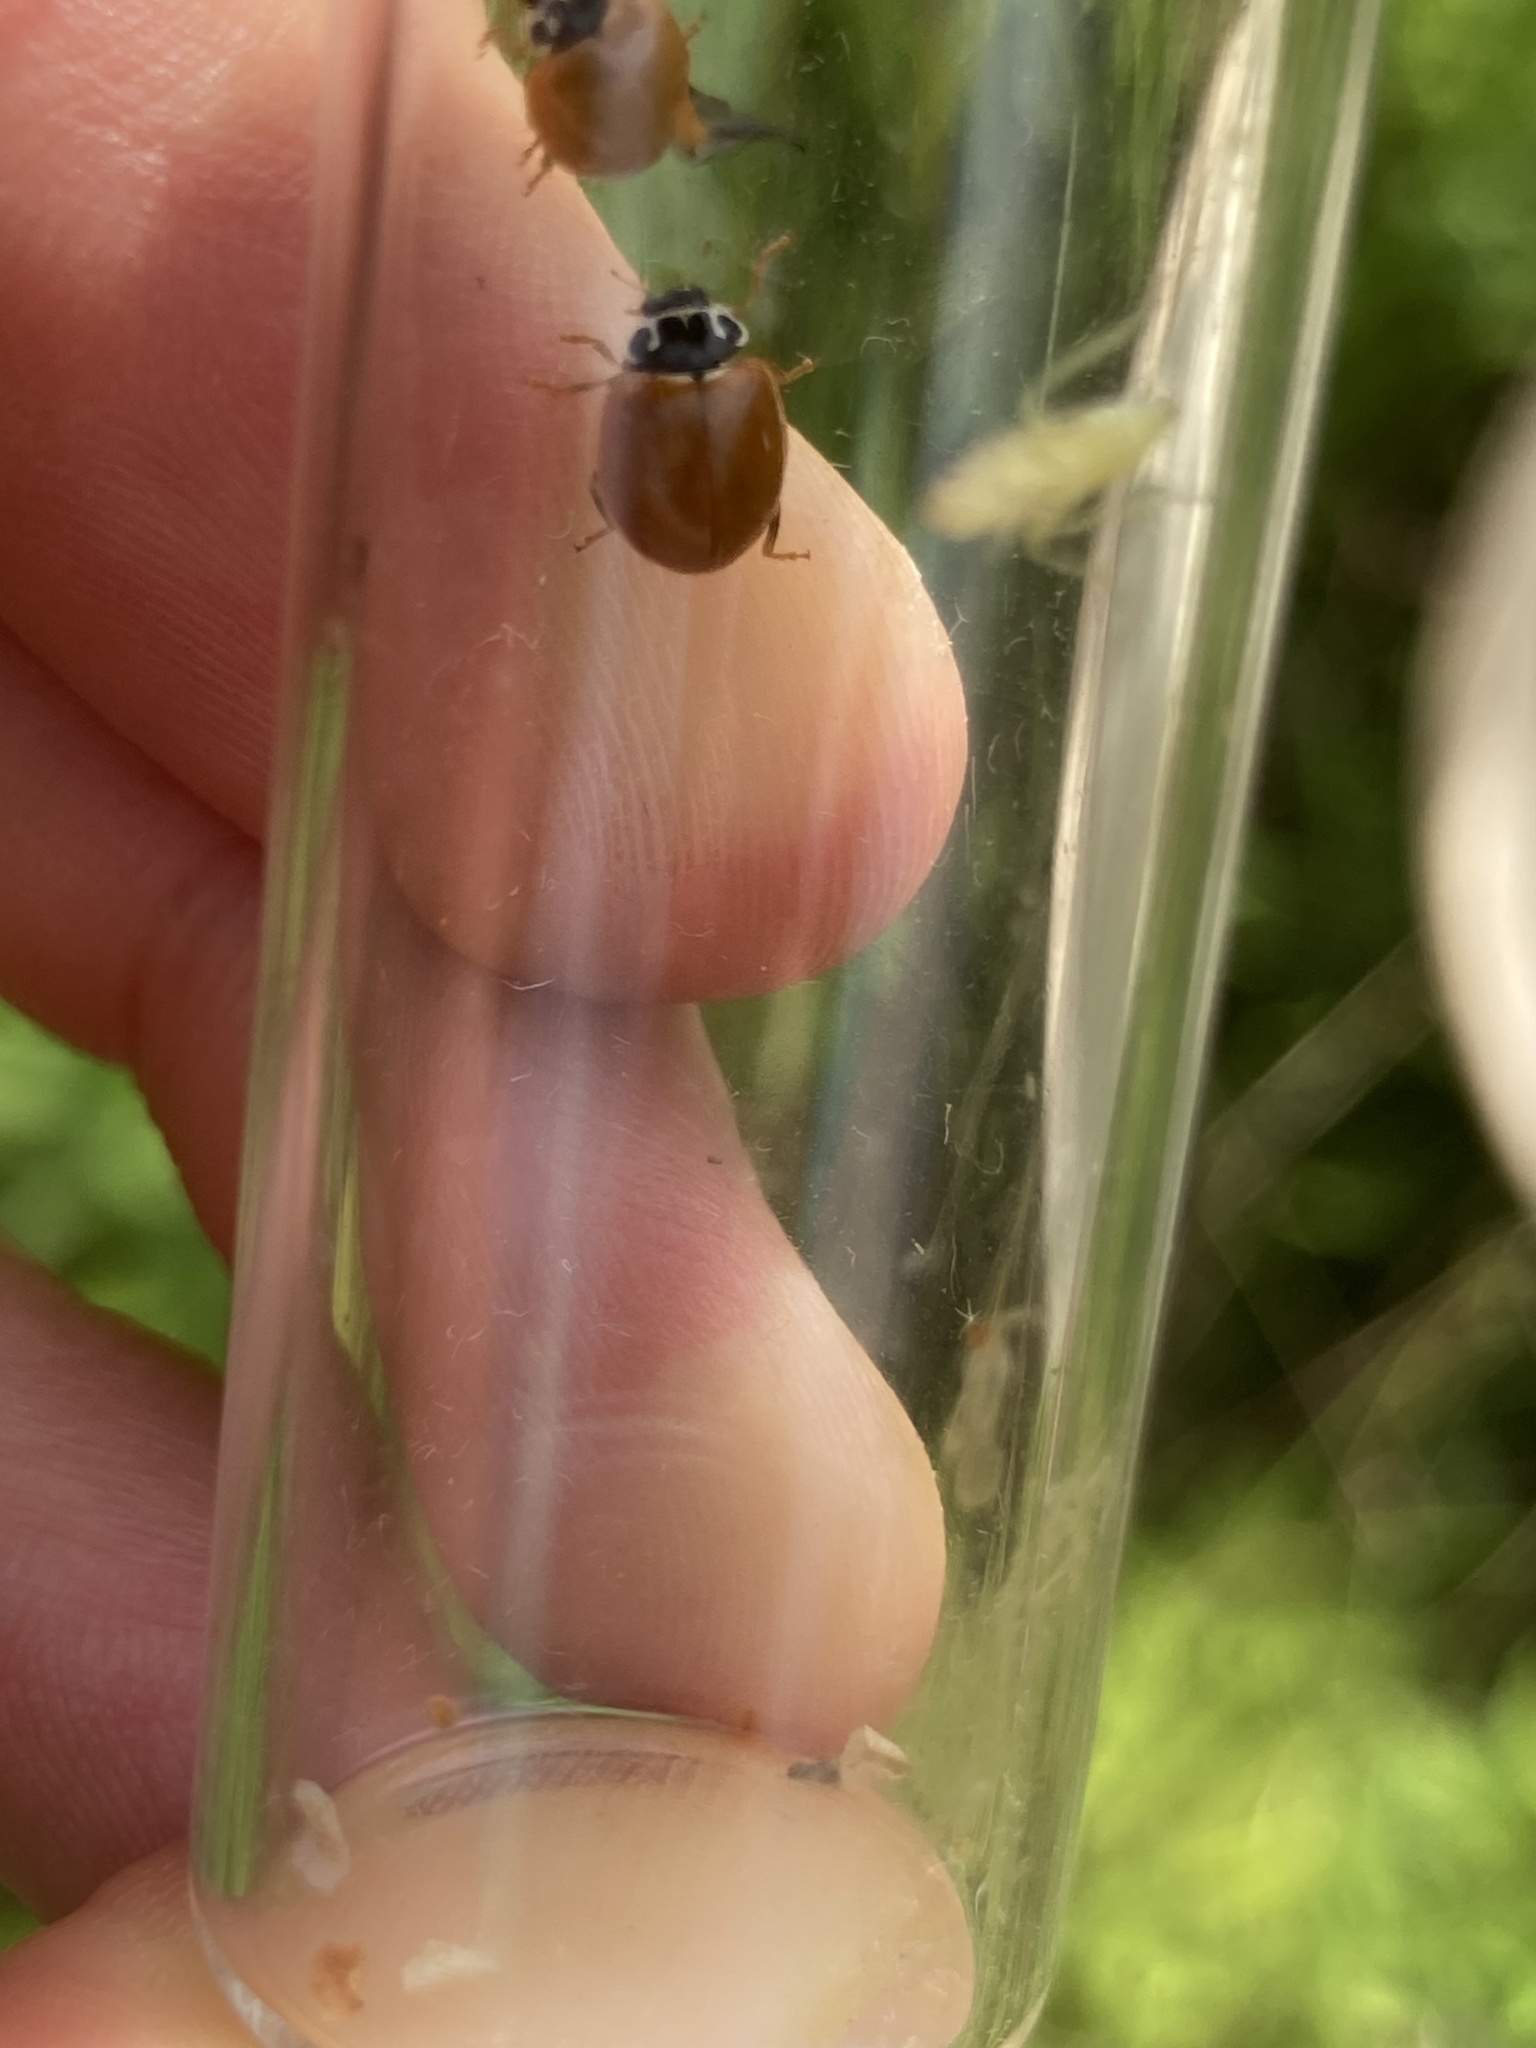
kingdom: Animalia
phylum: Arthropoda
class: Insecta
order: Coleoptera
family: Coccinellidae
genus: Cycloneda
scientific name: Cycloneda munda
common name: Polished lady beetle
